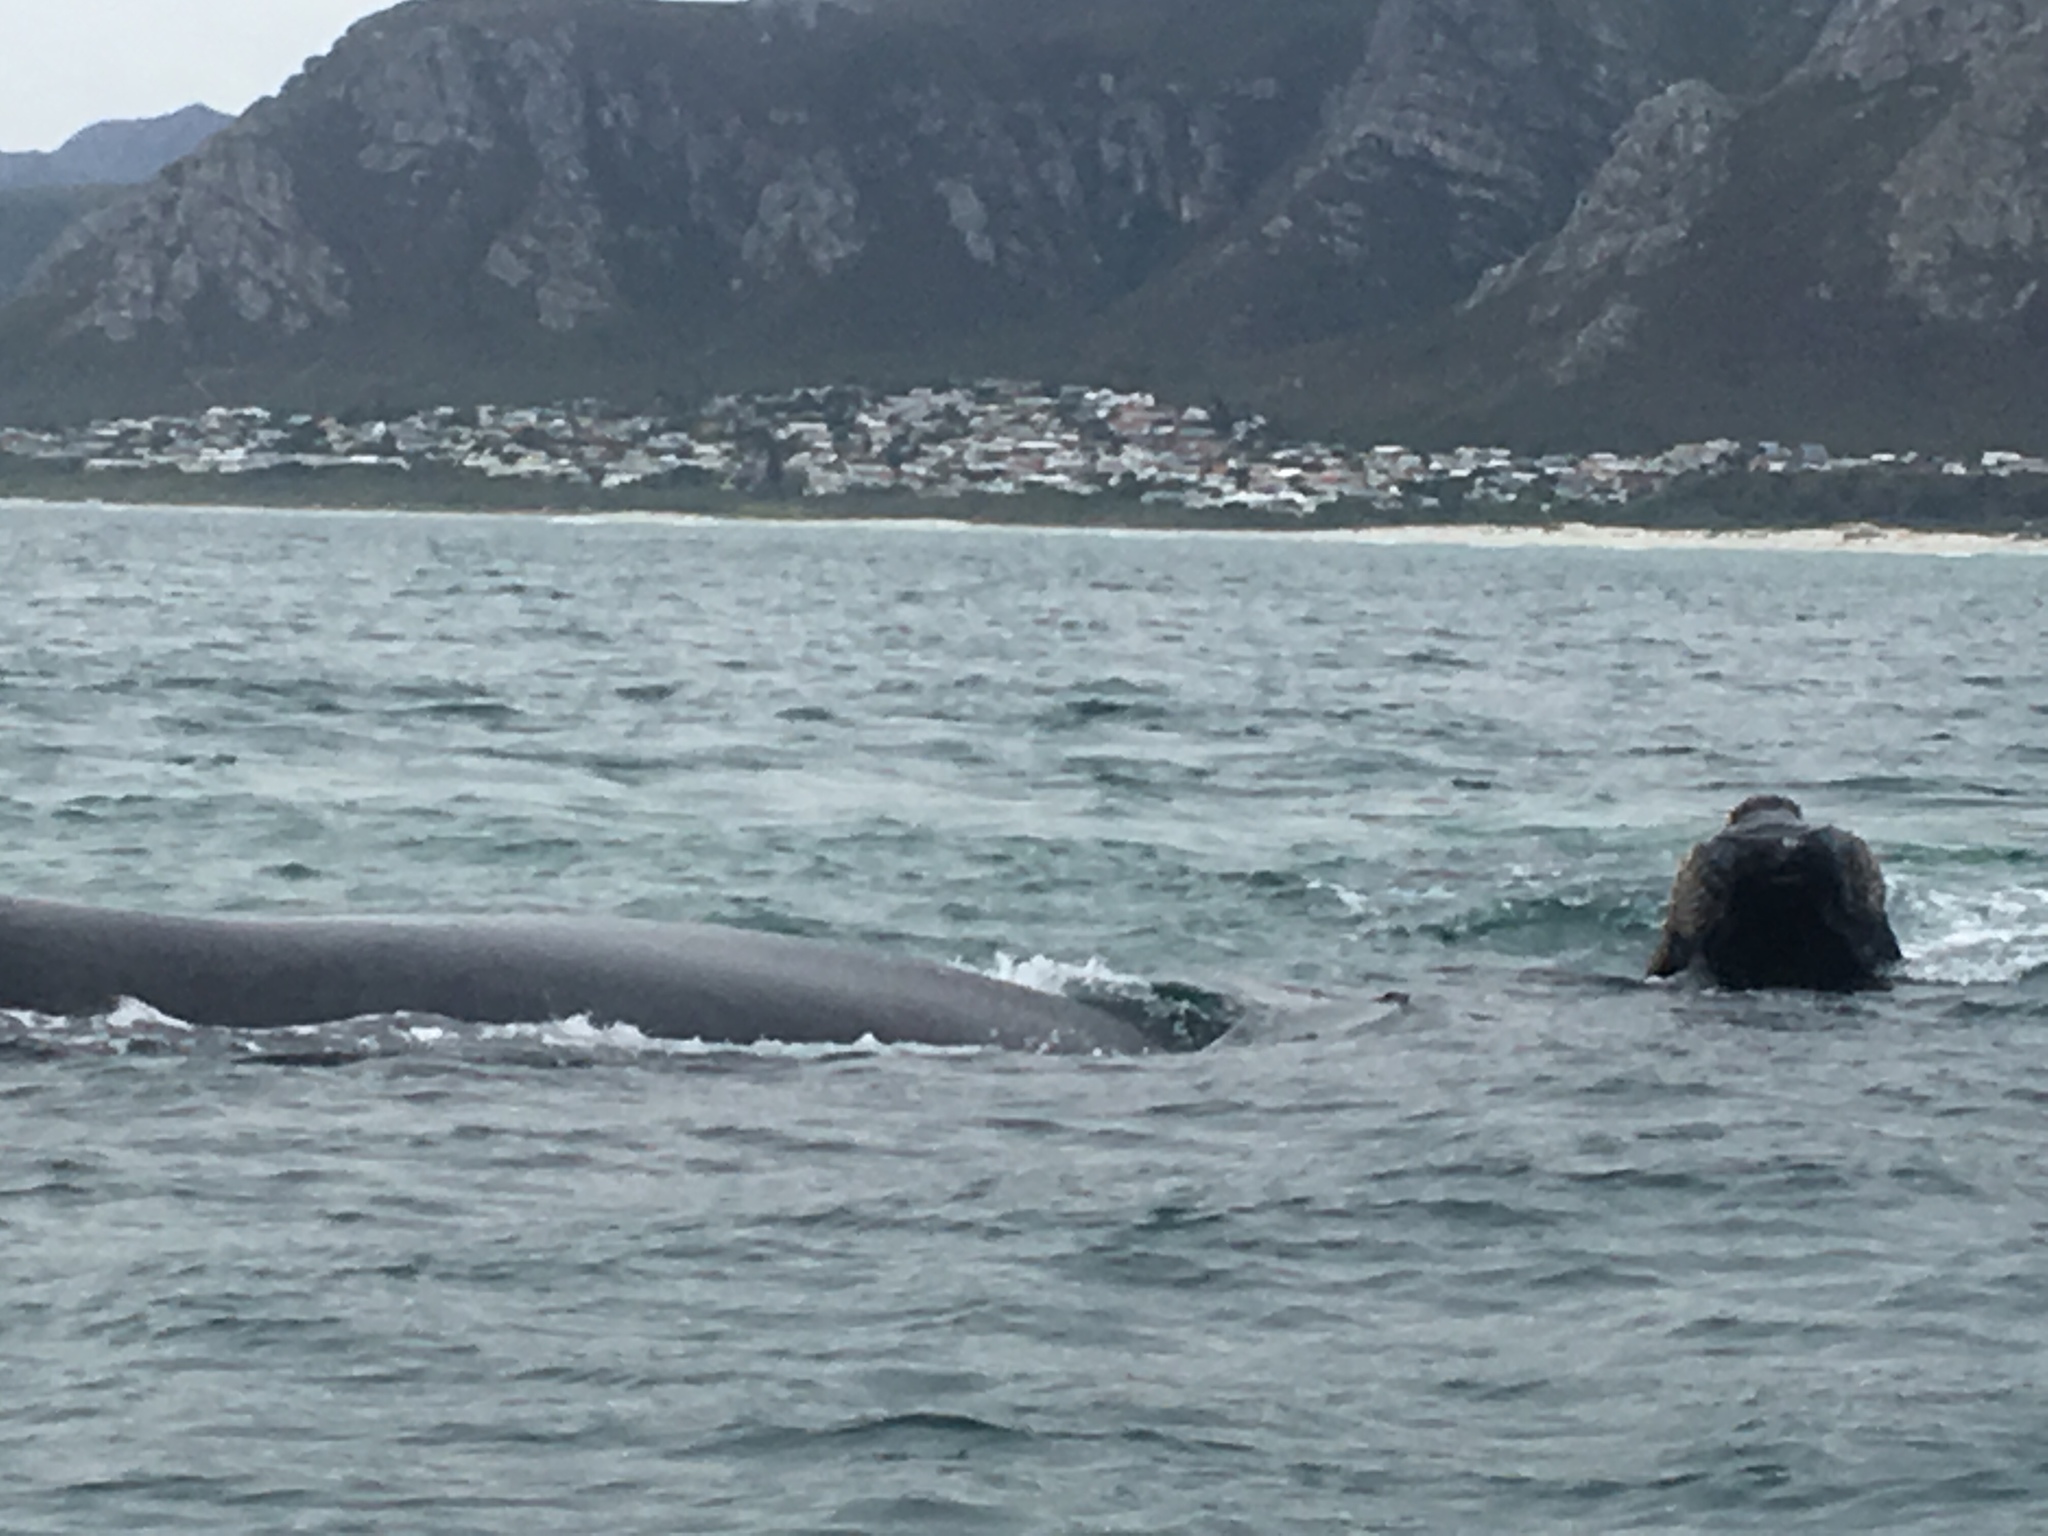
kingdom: Animalia
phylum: Chordata
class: Mammalia
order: Cetacea
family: Balaenidae
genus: Eubalaena
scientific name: Eubalaena australis
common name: Southern right whale
